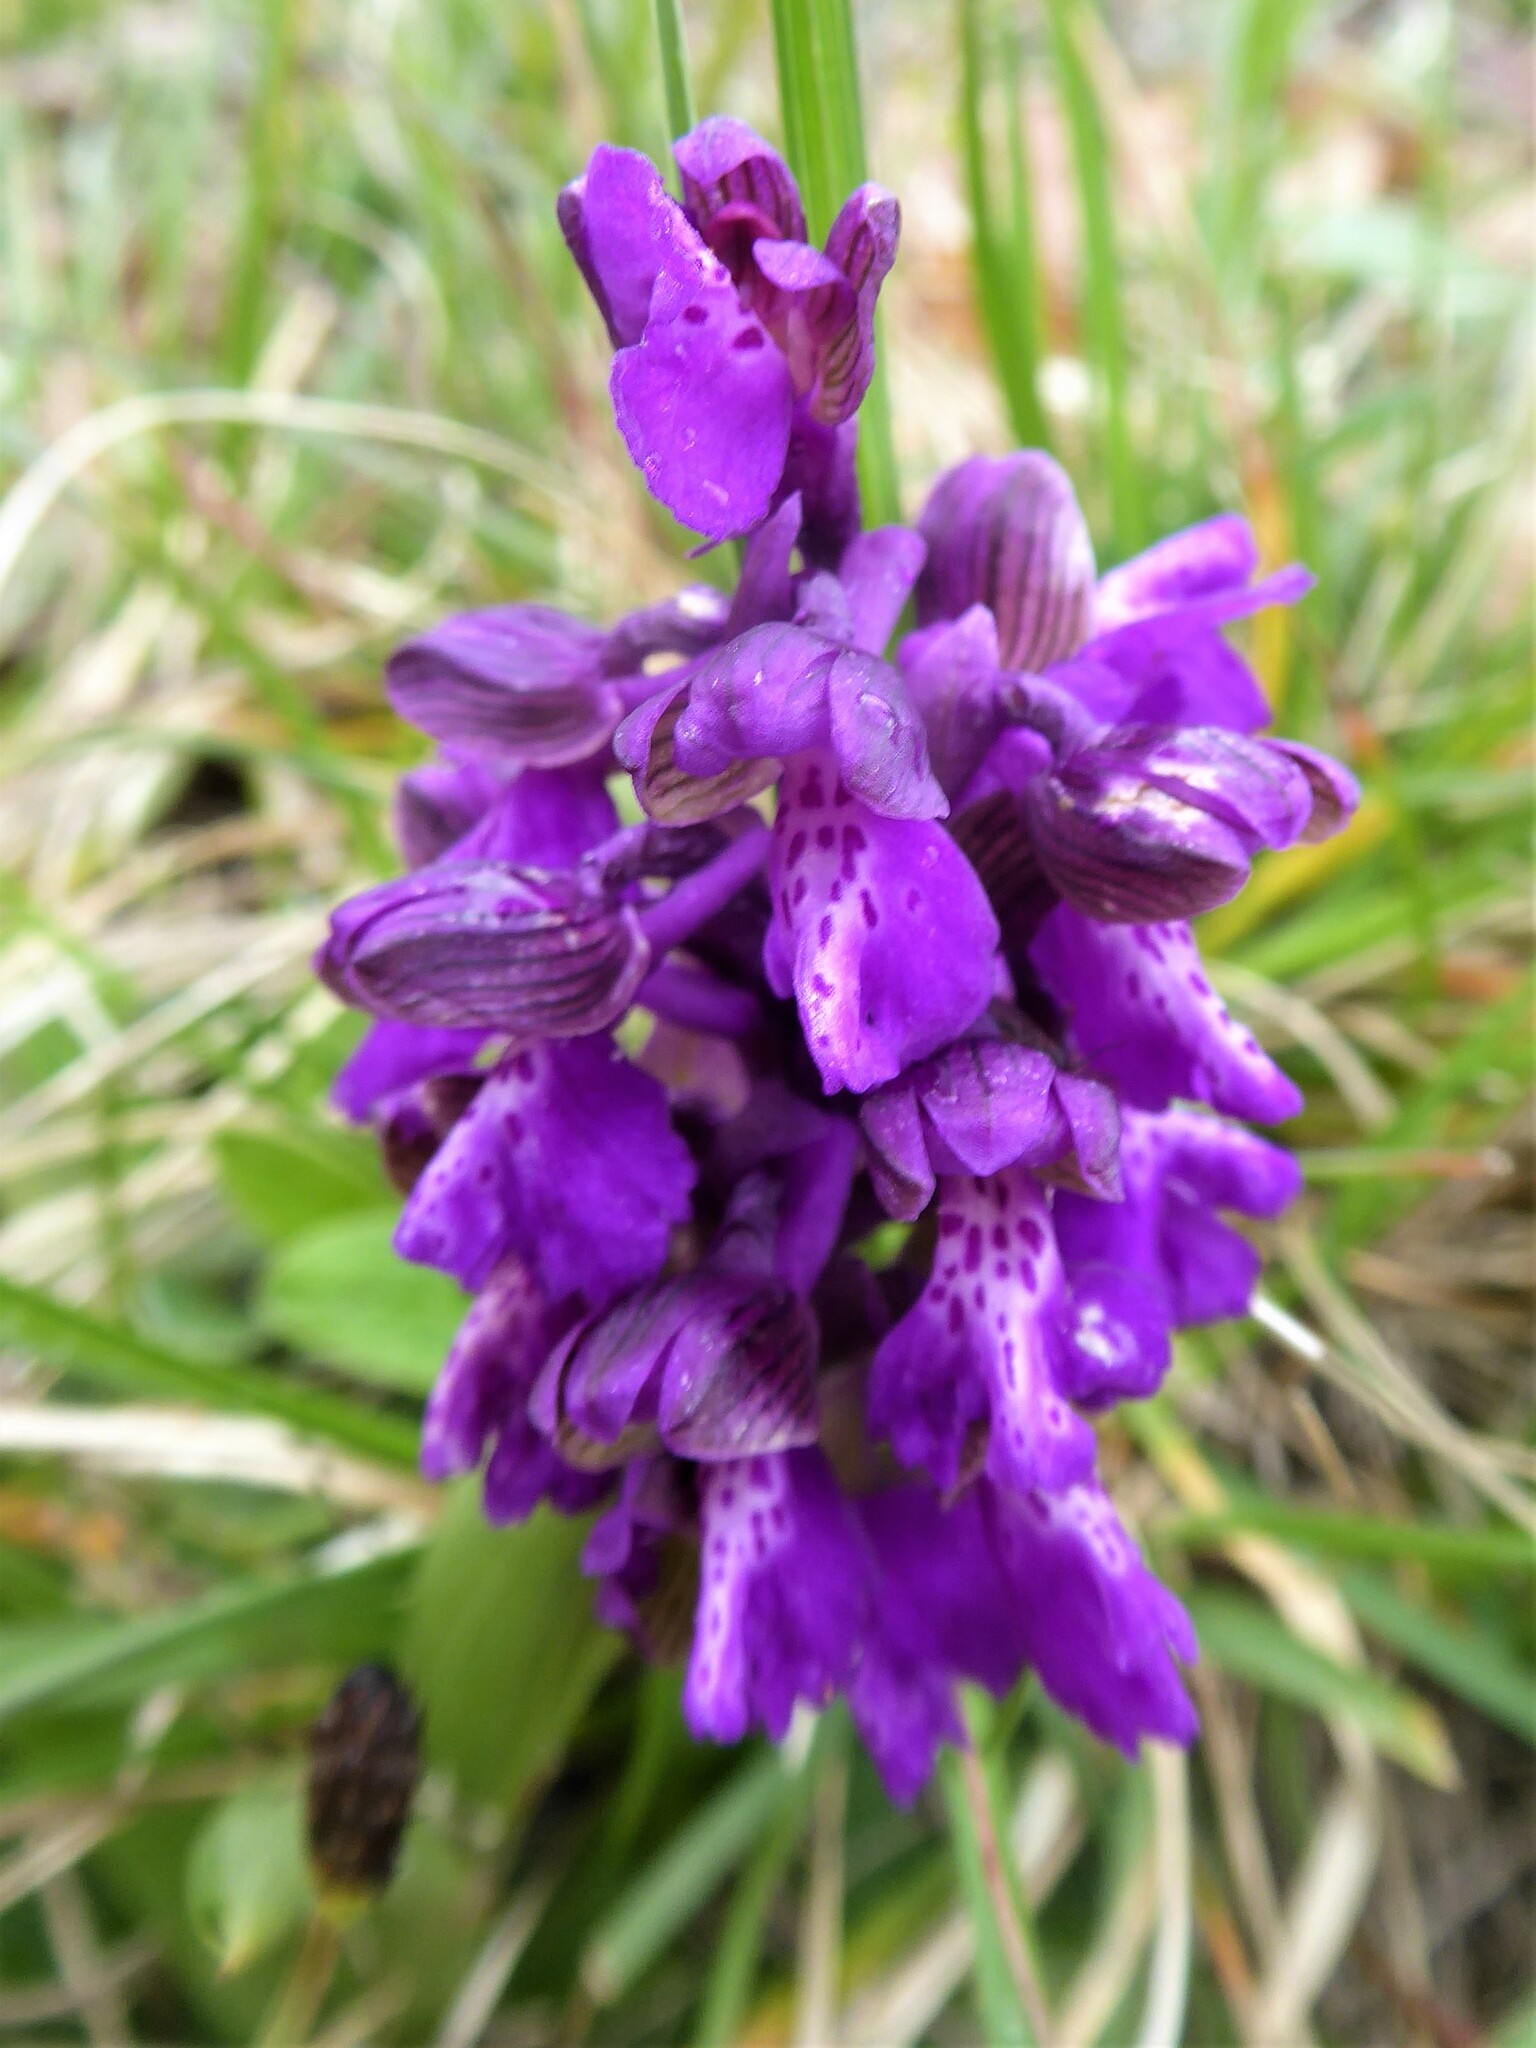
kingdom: Plantae
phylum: Tracheophyta
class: Liliopsida
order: Asparagales
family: Orchidaceae
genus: Anacamptis
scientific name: Anacamptis morio
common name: Green-winged orchid
